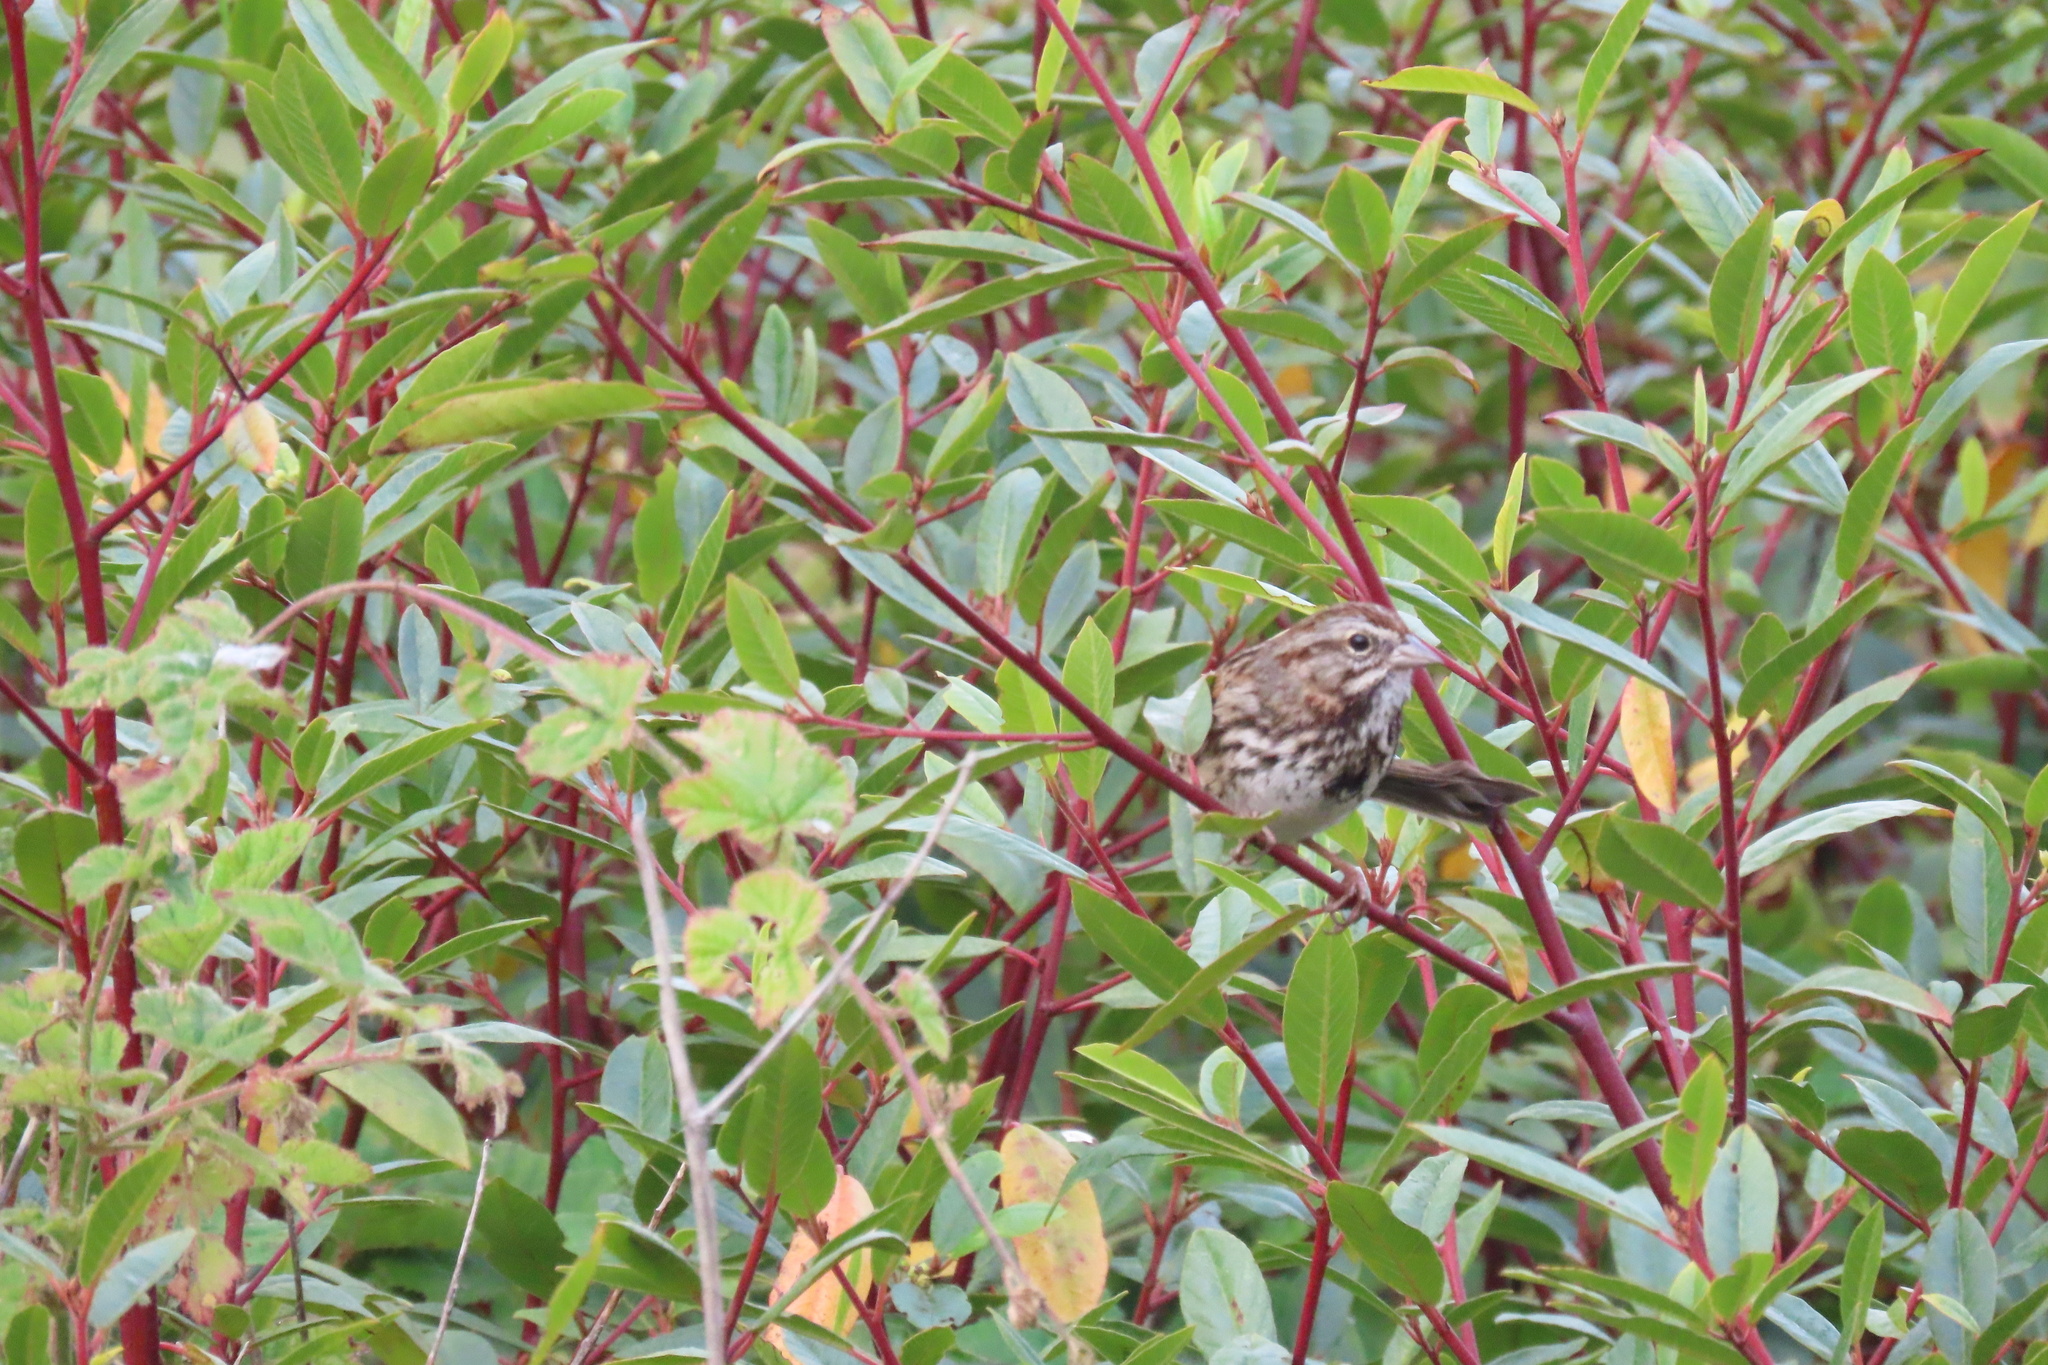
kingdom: Animalia
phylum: Chordata
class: Aves
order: Passeriformes
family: Passerellidae
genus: Melospiza
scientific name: Melospiza melodia
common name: Song sparrow
